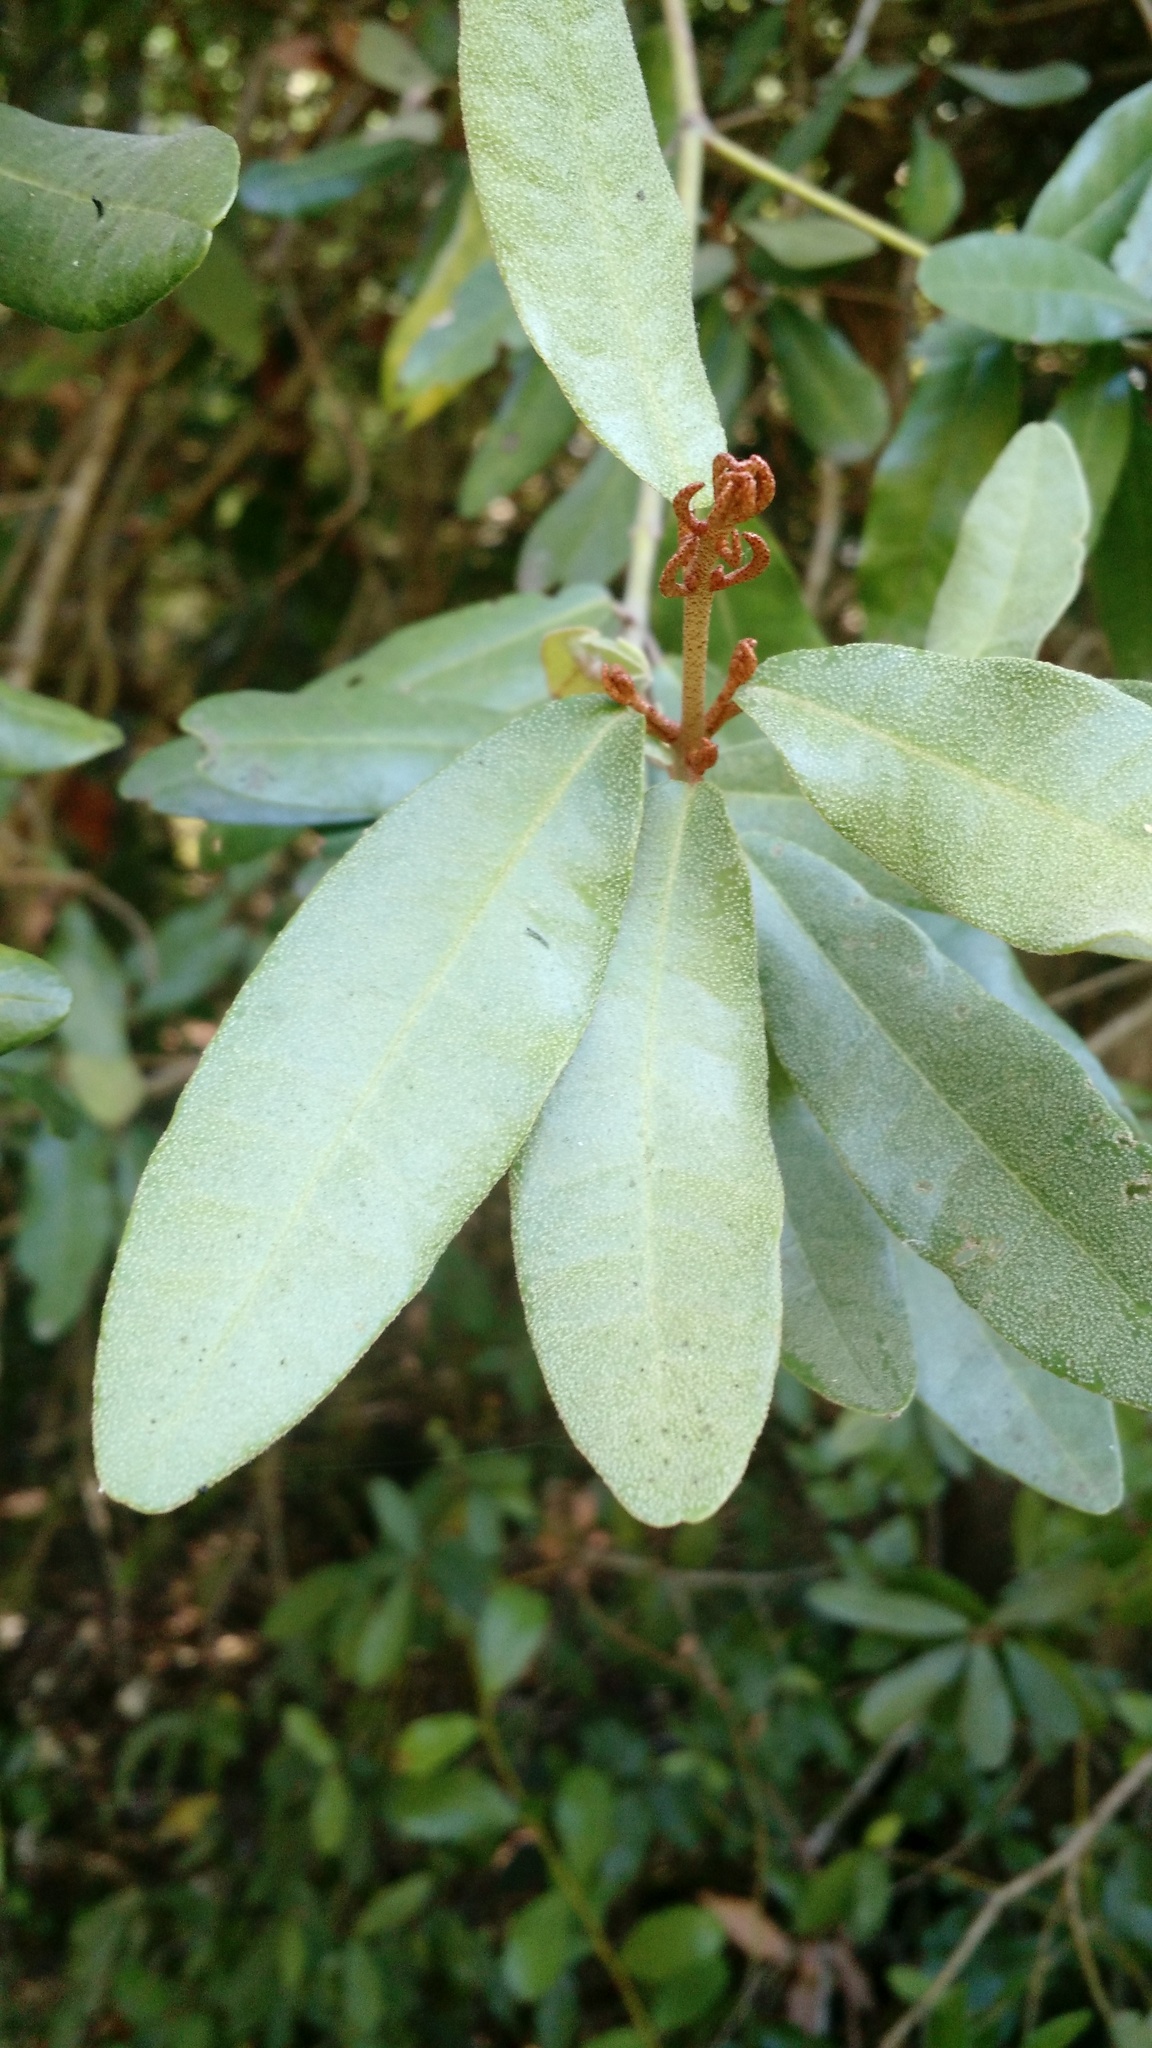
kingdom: Plantae
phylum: Tracheophyta
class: Magnoliopsida
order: Berberidopsidales
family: Aextoxicaceae
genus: Aextoxicon
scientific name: Aextoxicon punctatum
